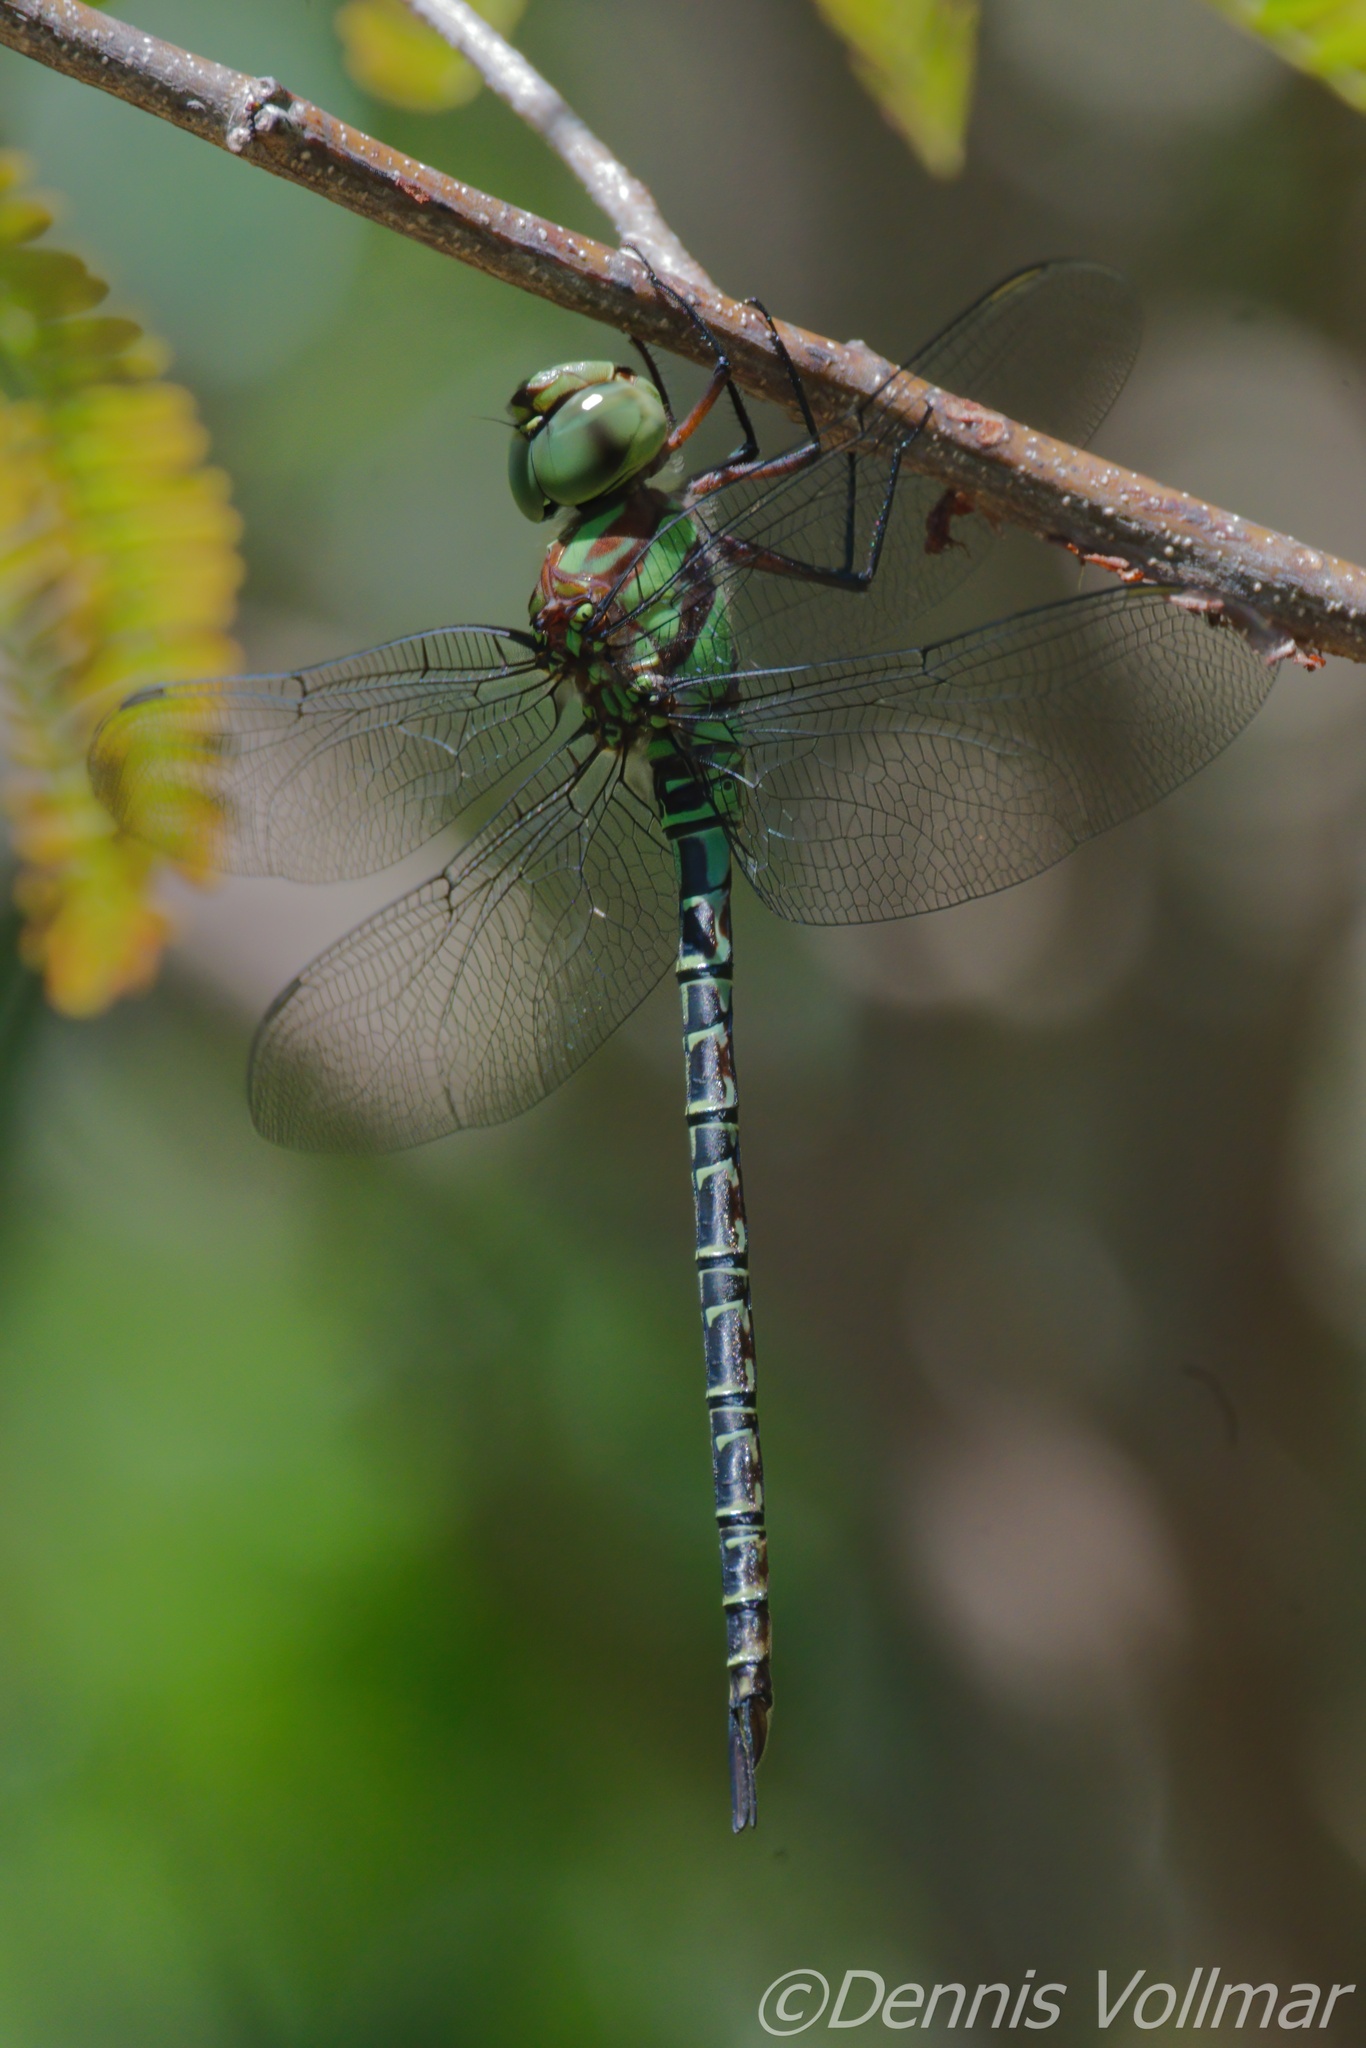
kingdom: Animalia
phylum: Arthropoda
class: Insecta
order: Odonata
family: Aeshnidae
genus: Coryphaeschna
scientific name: Coryphaeschna ingens
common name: Regal darner
